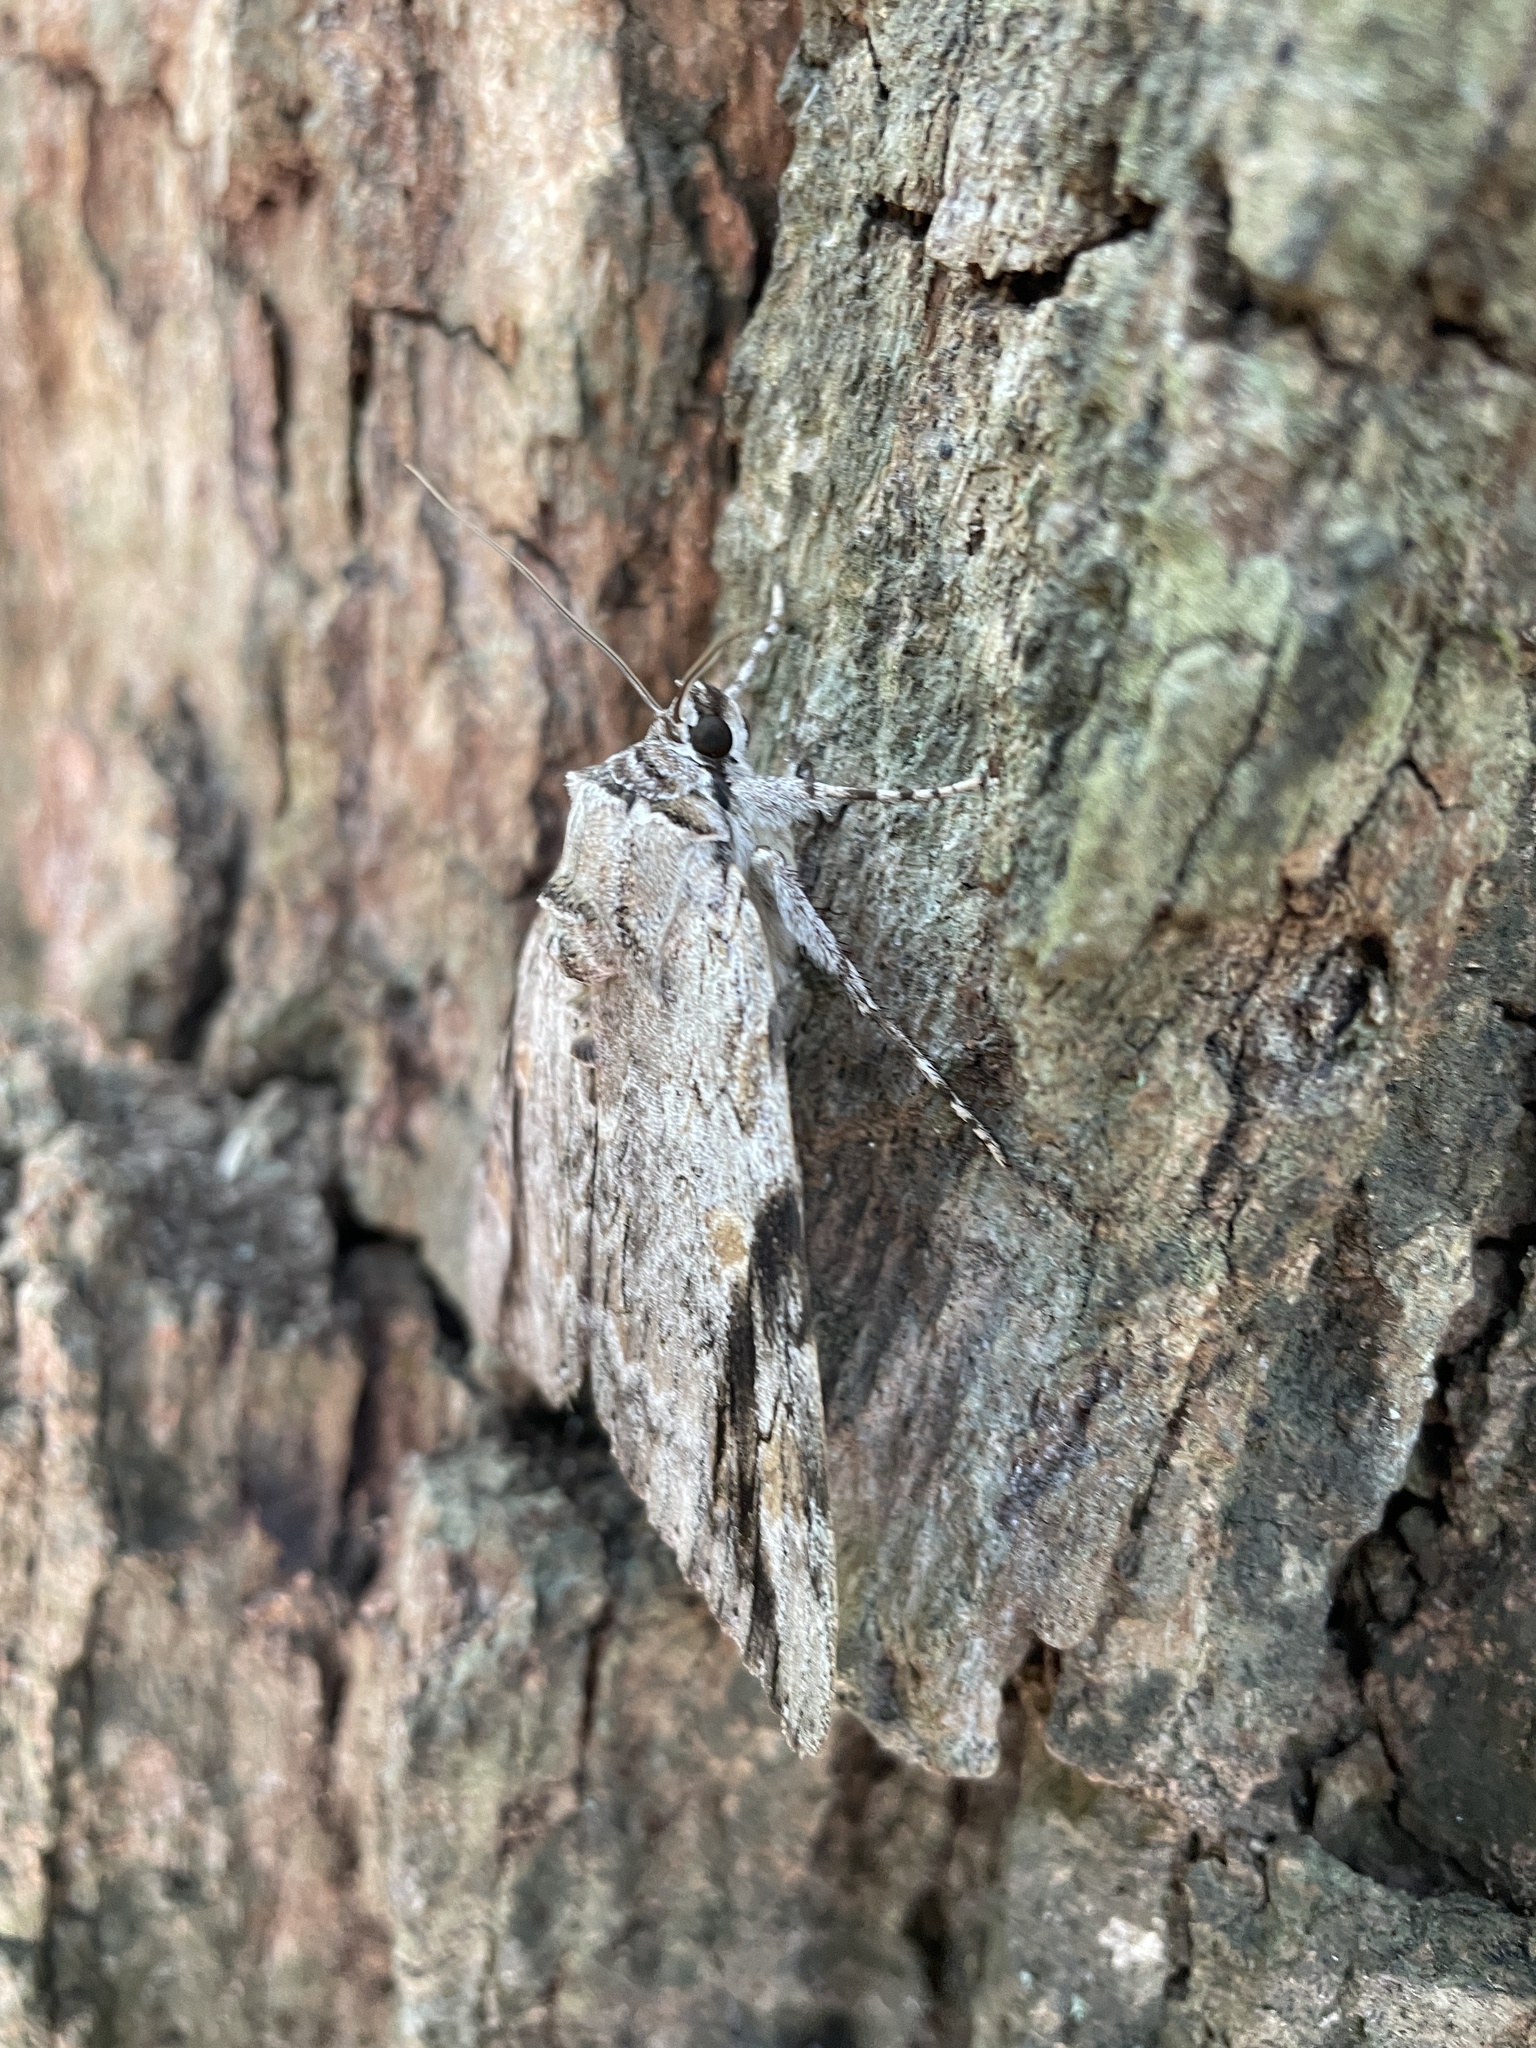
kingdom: Animalia
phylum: Arthropoda
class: Insecta
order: Lepidoptera
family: Erebidae
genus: Catocala
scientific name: Catocala maestosa
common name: Sad underwing
